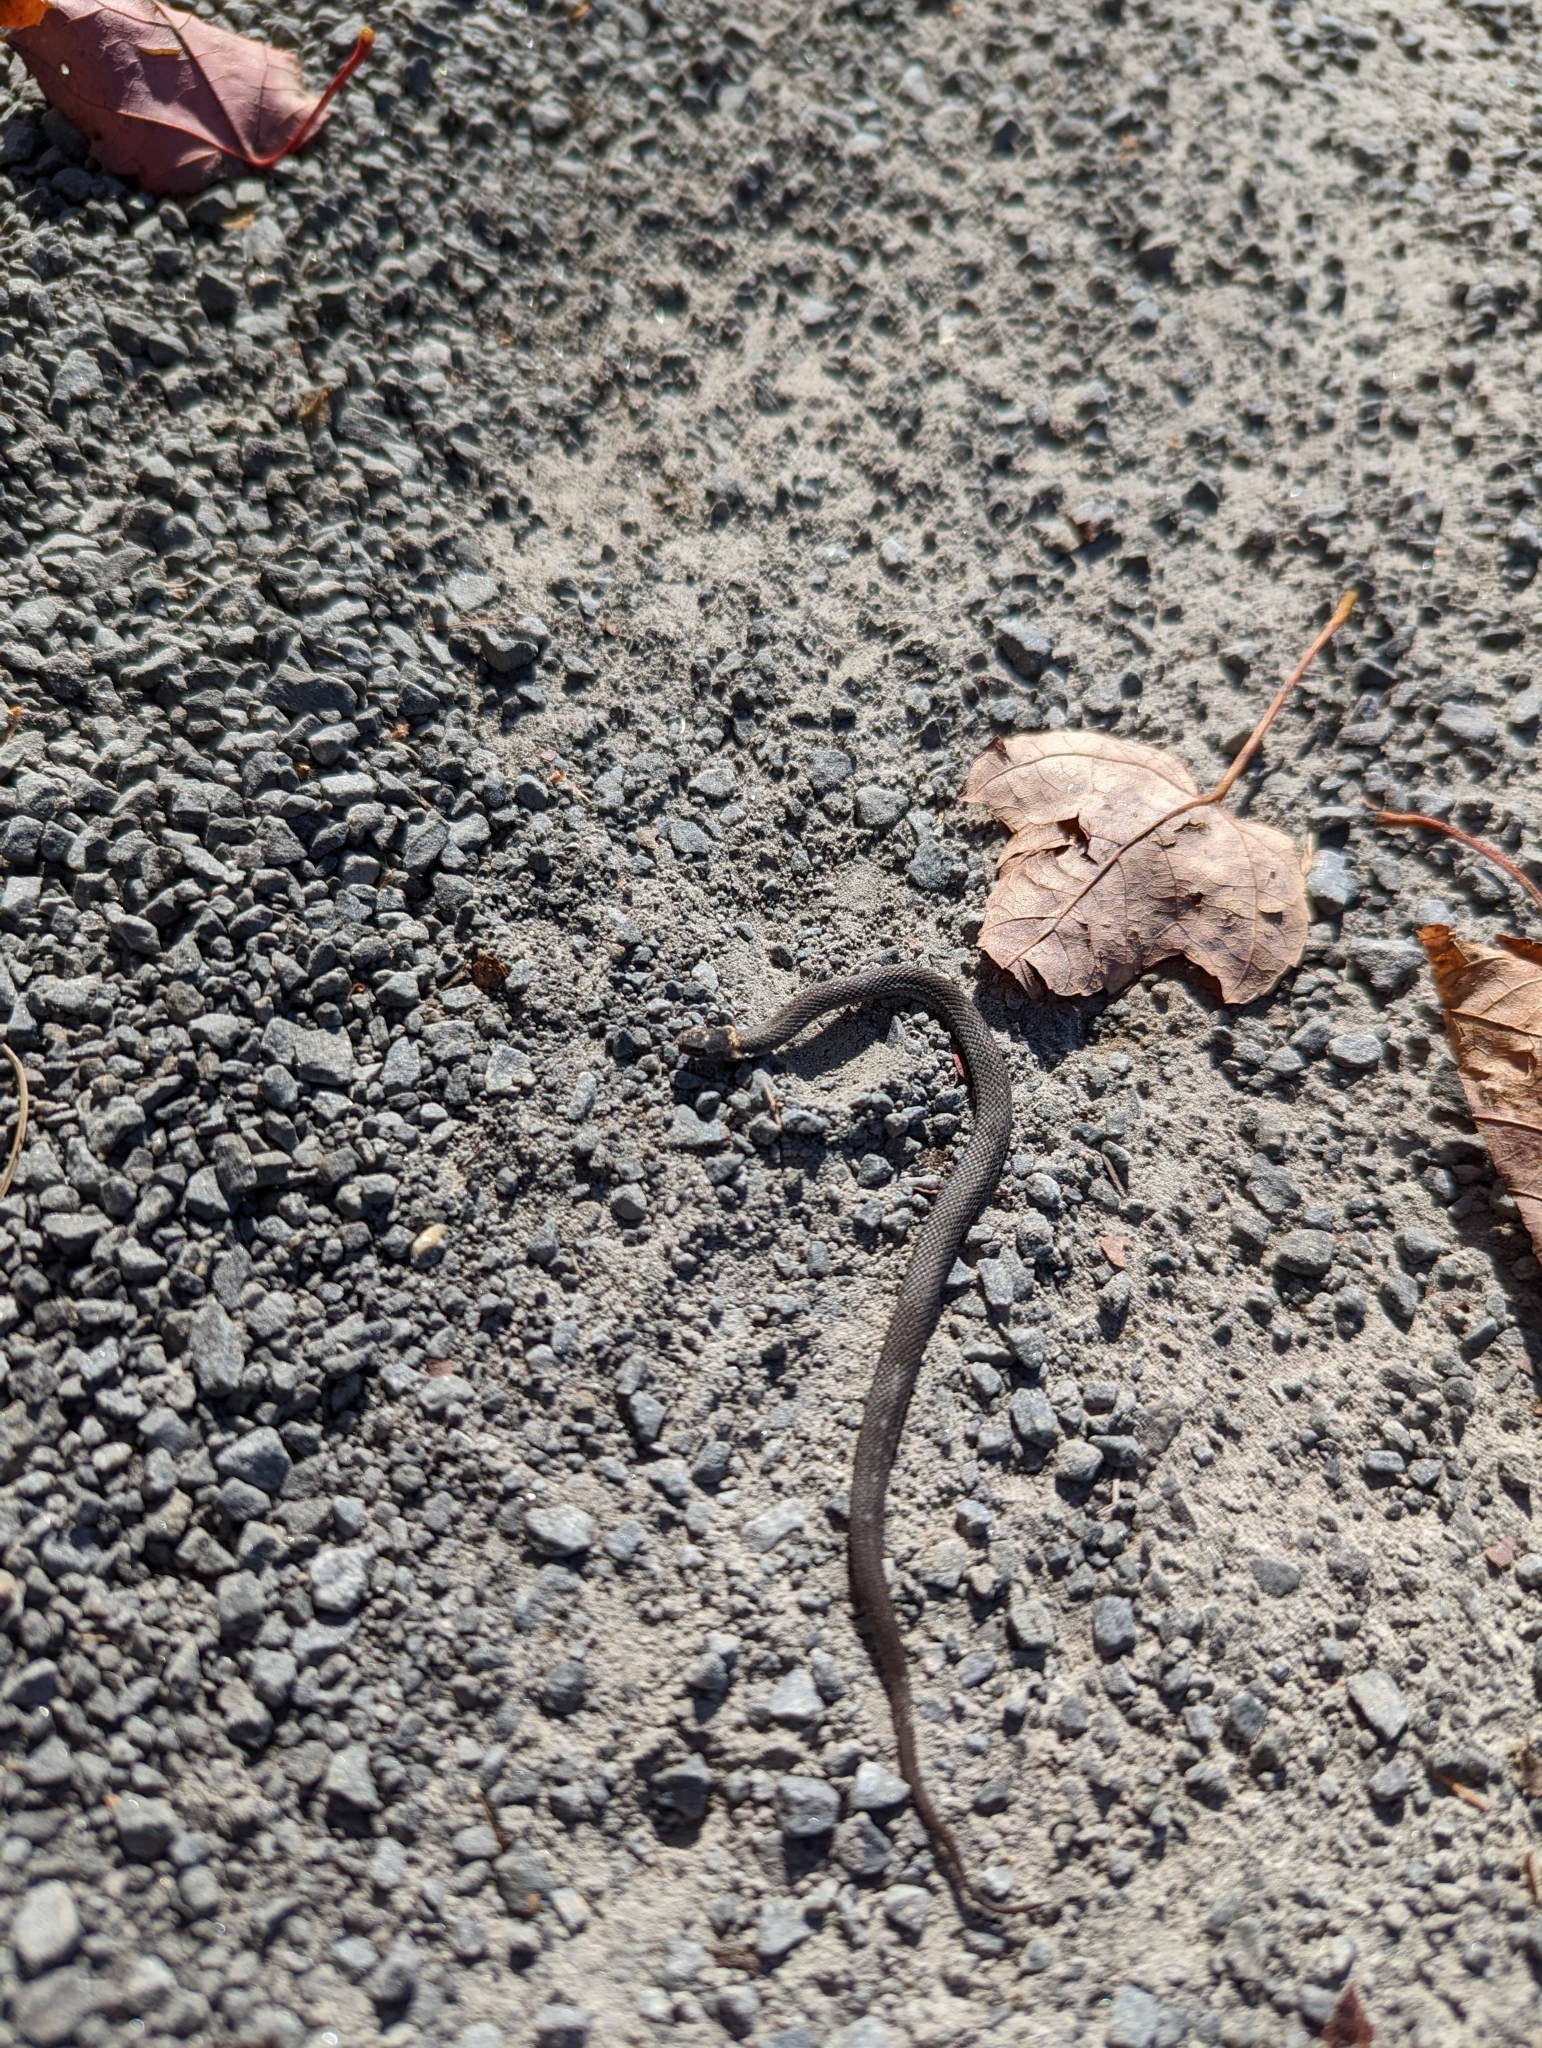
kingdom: Animalia
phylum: Chordata
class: Squamata
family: Colubridae
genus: Storeria
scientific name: Storeria occipitomaculata
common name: Redbelly snake
